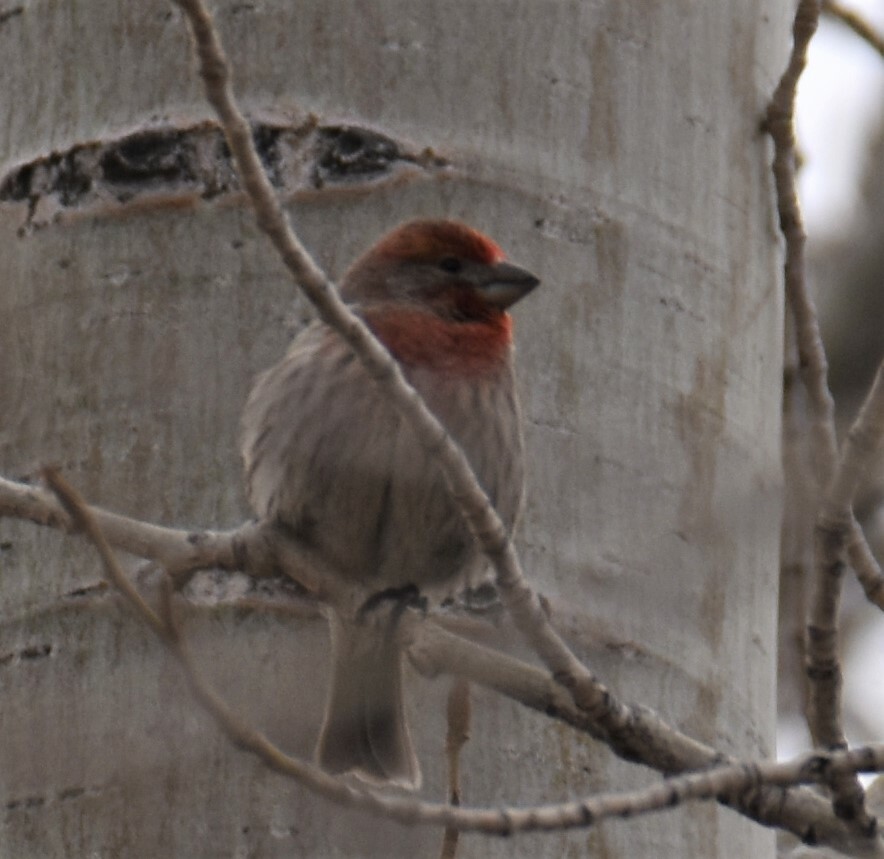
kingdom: Animalia
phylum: Chordata
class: Aves
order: Passeriformes
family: Fringillidae
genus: Haemorhous
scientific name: Haemorhous mexicanus
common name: House finch
